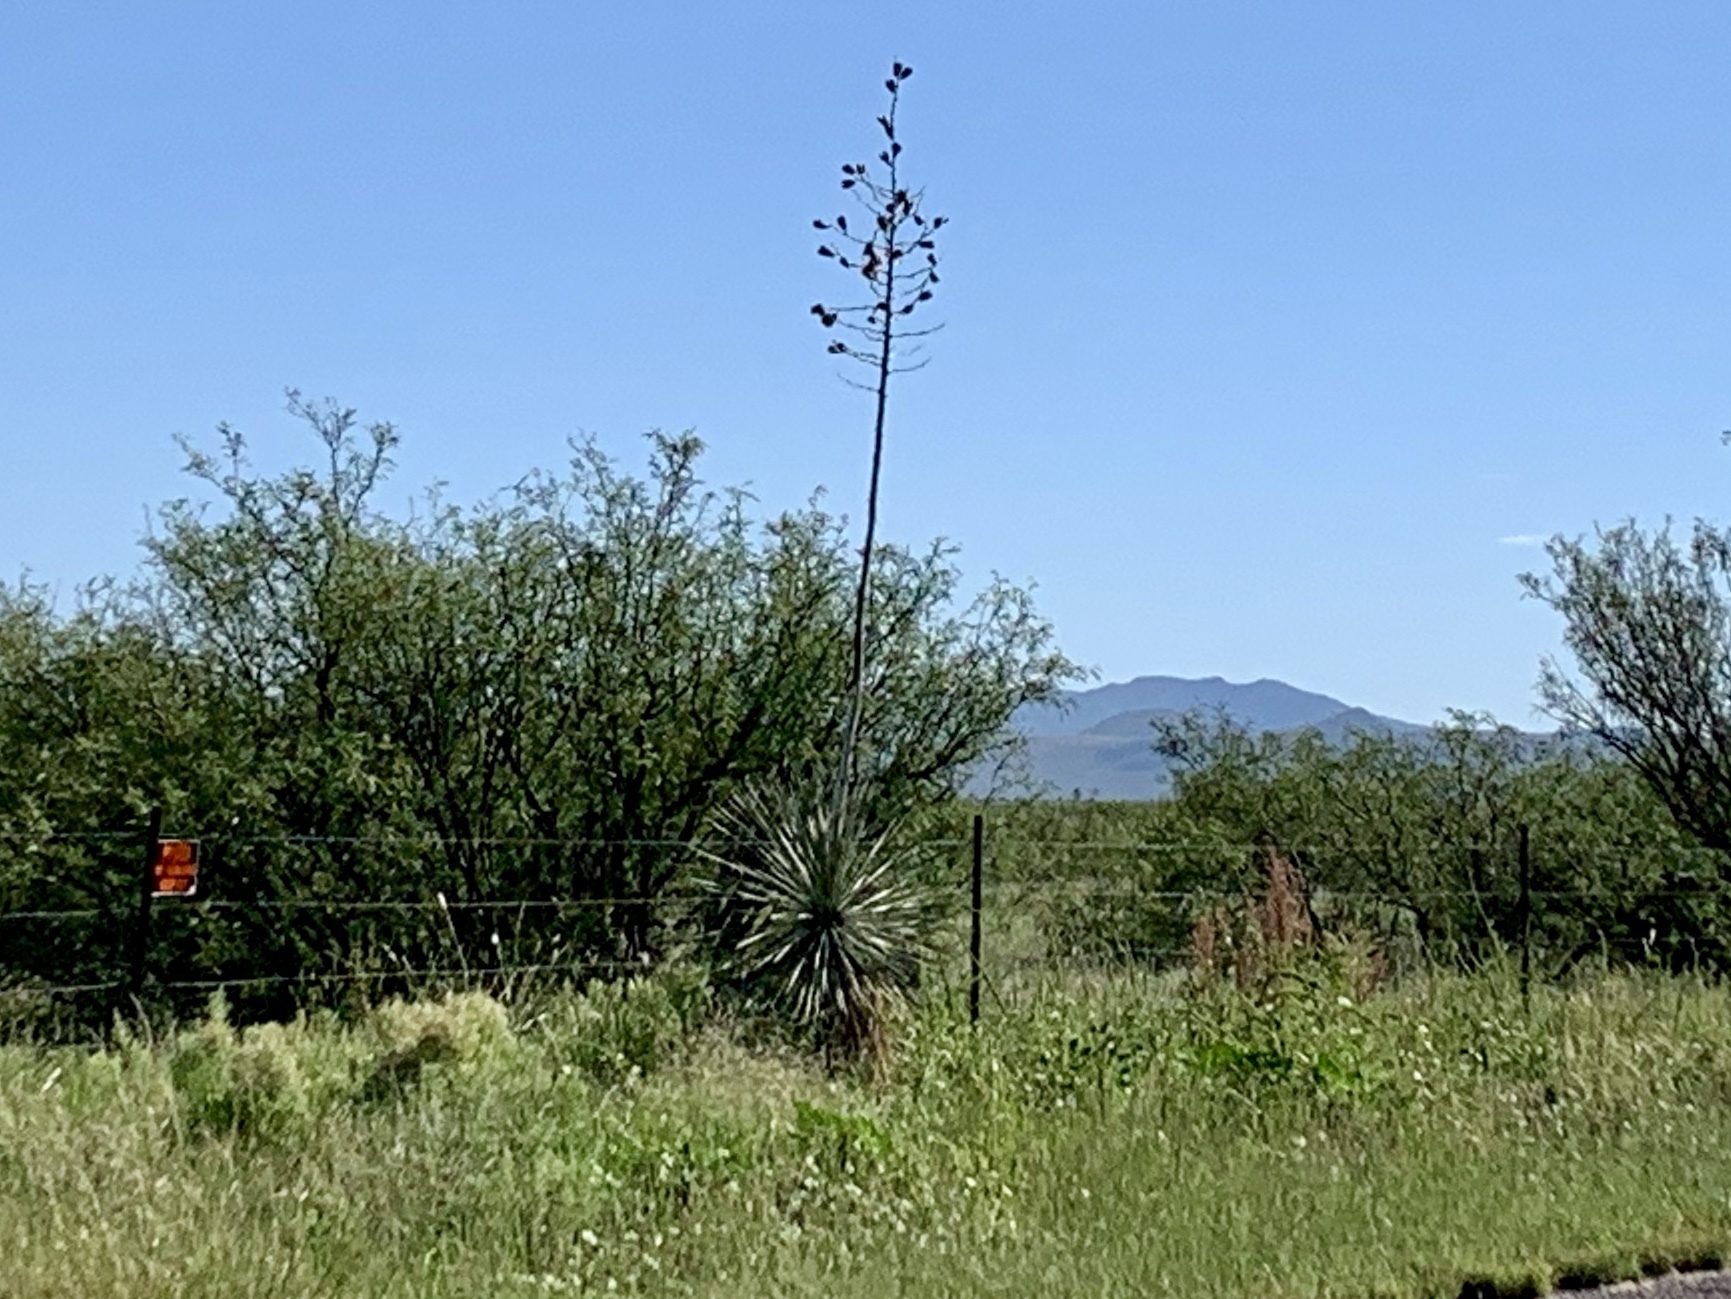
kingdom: Plantae
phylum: Tracheophyta
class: Liliopsida
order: Asparagales
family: Asparagaceae
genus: Yucca
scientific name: Yucca elata
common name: Palmella
